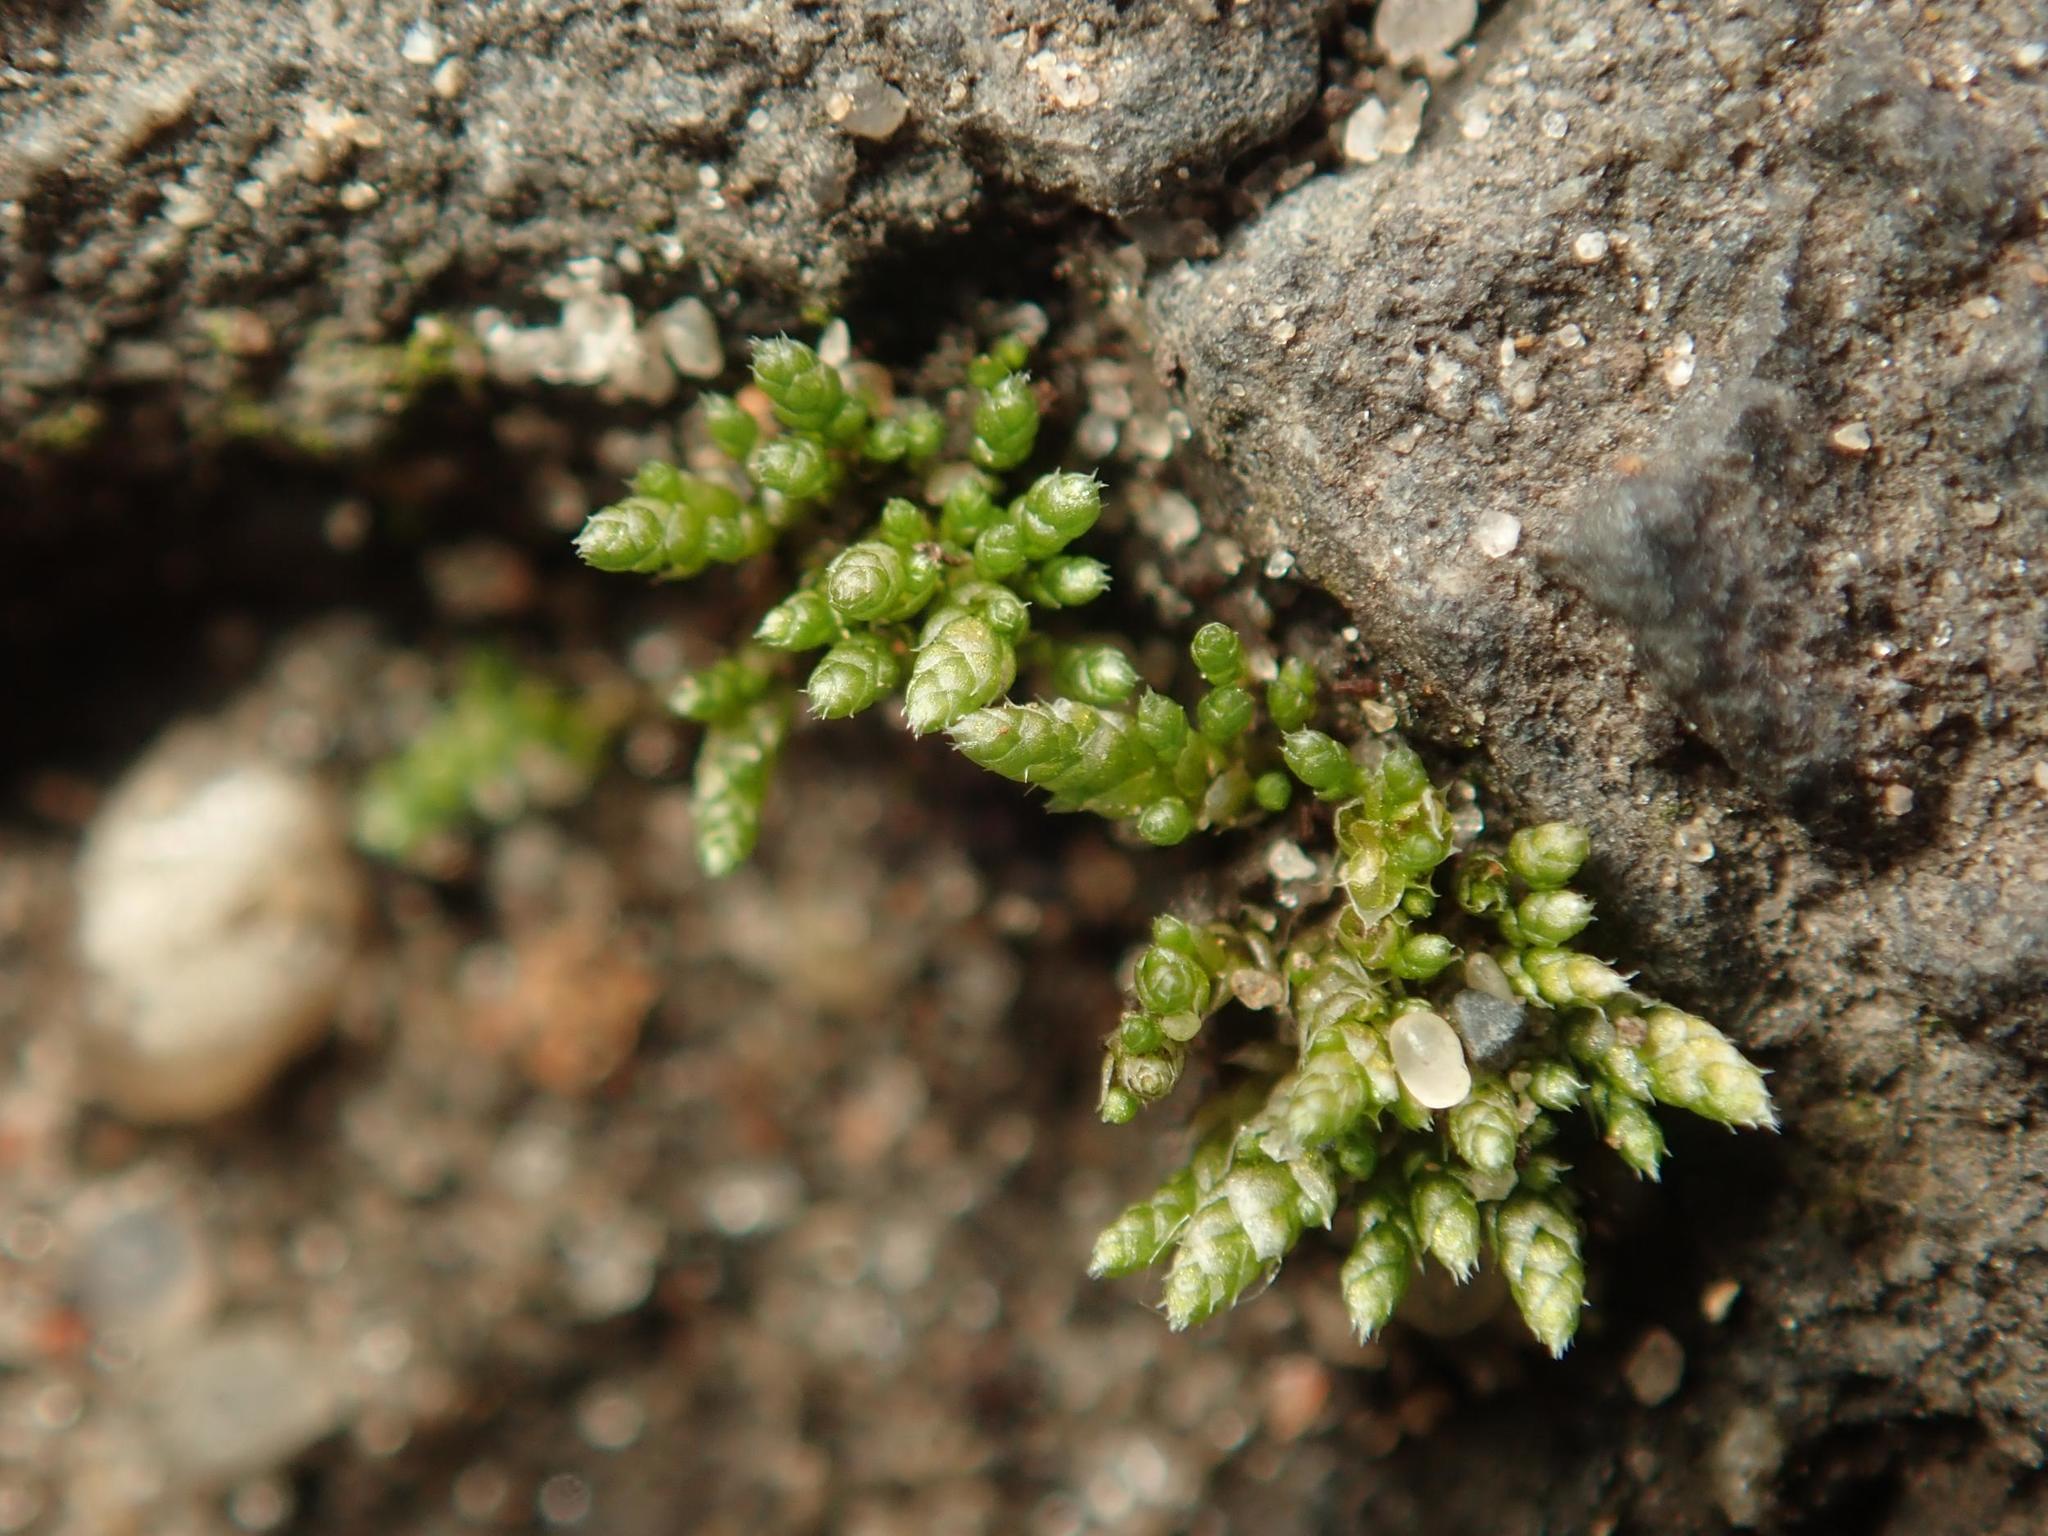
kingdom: Plantae
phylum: Bryophyta
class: Bryopsida
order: Bryales
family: Bryaceae
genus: Bryum
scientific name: Bryum argenteum
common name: Silver-moss
